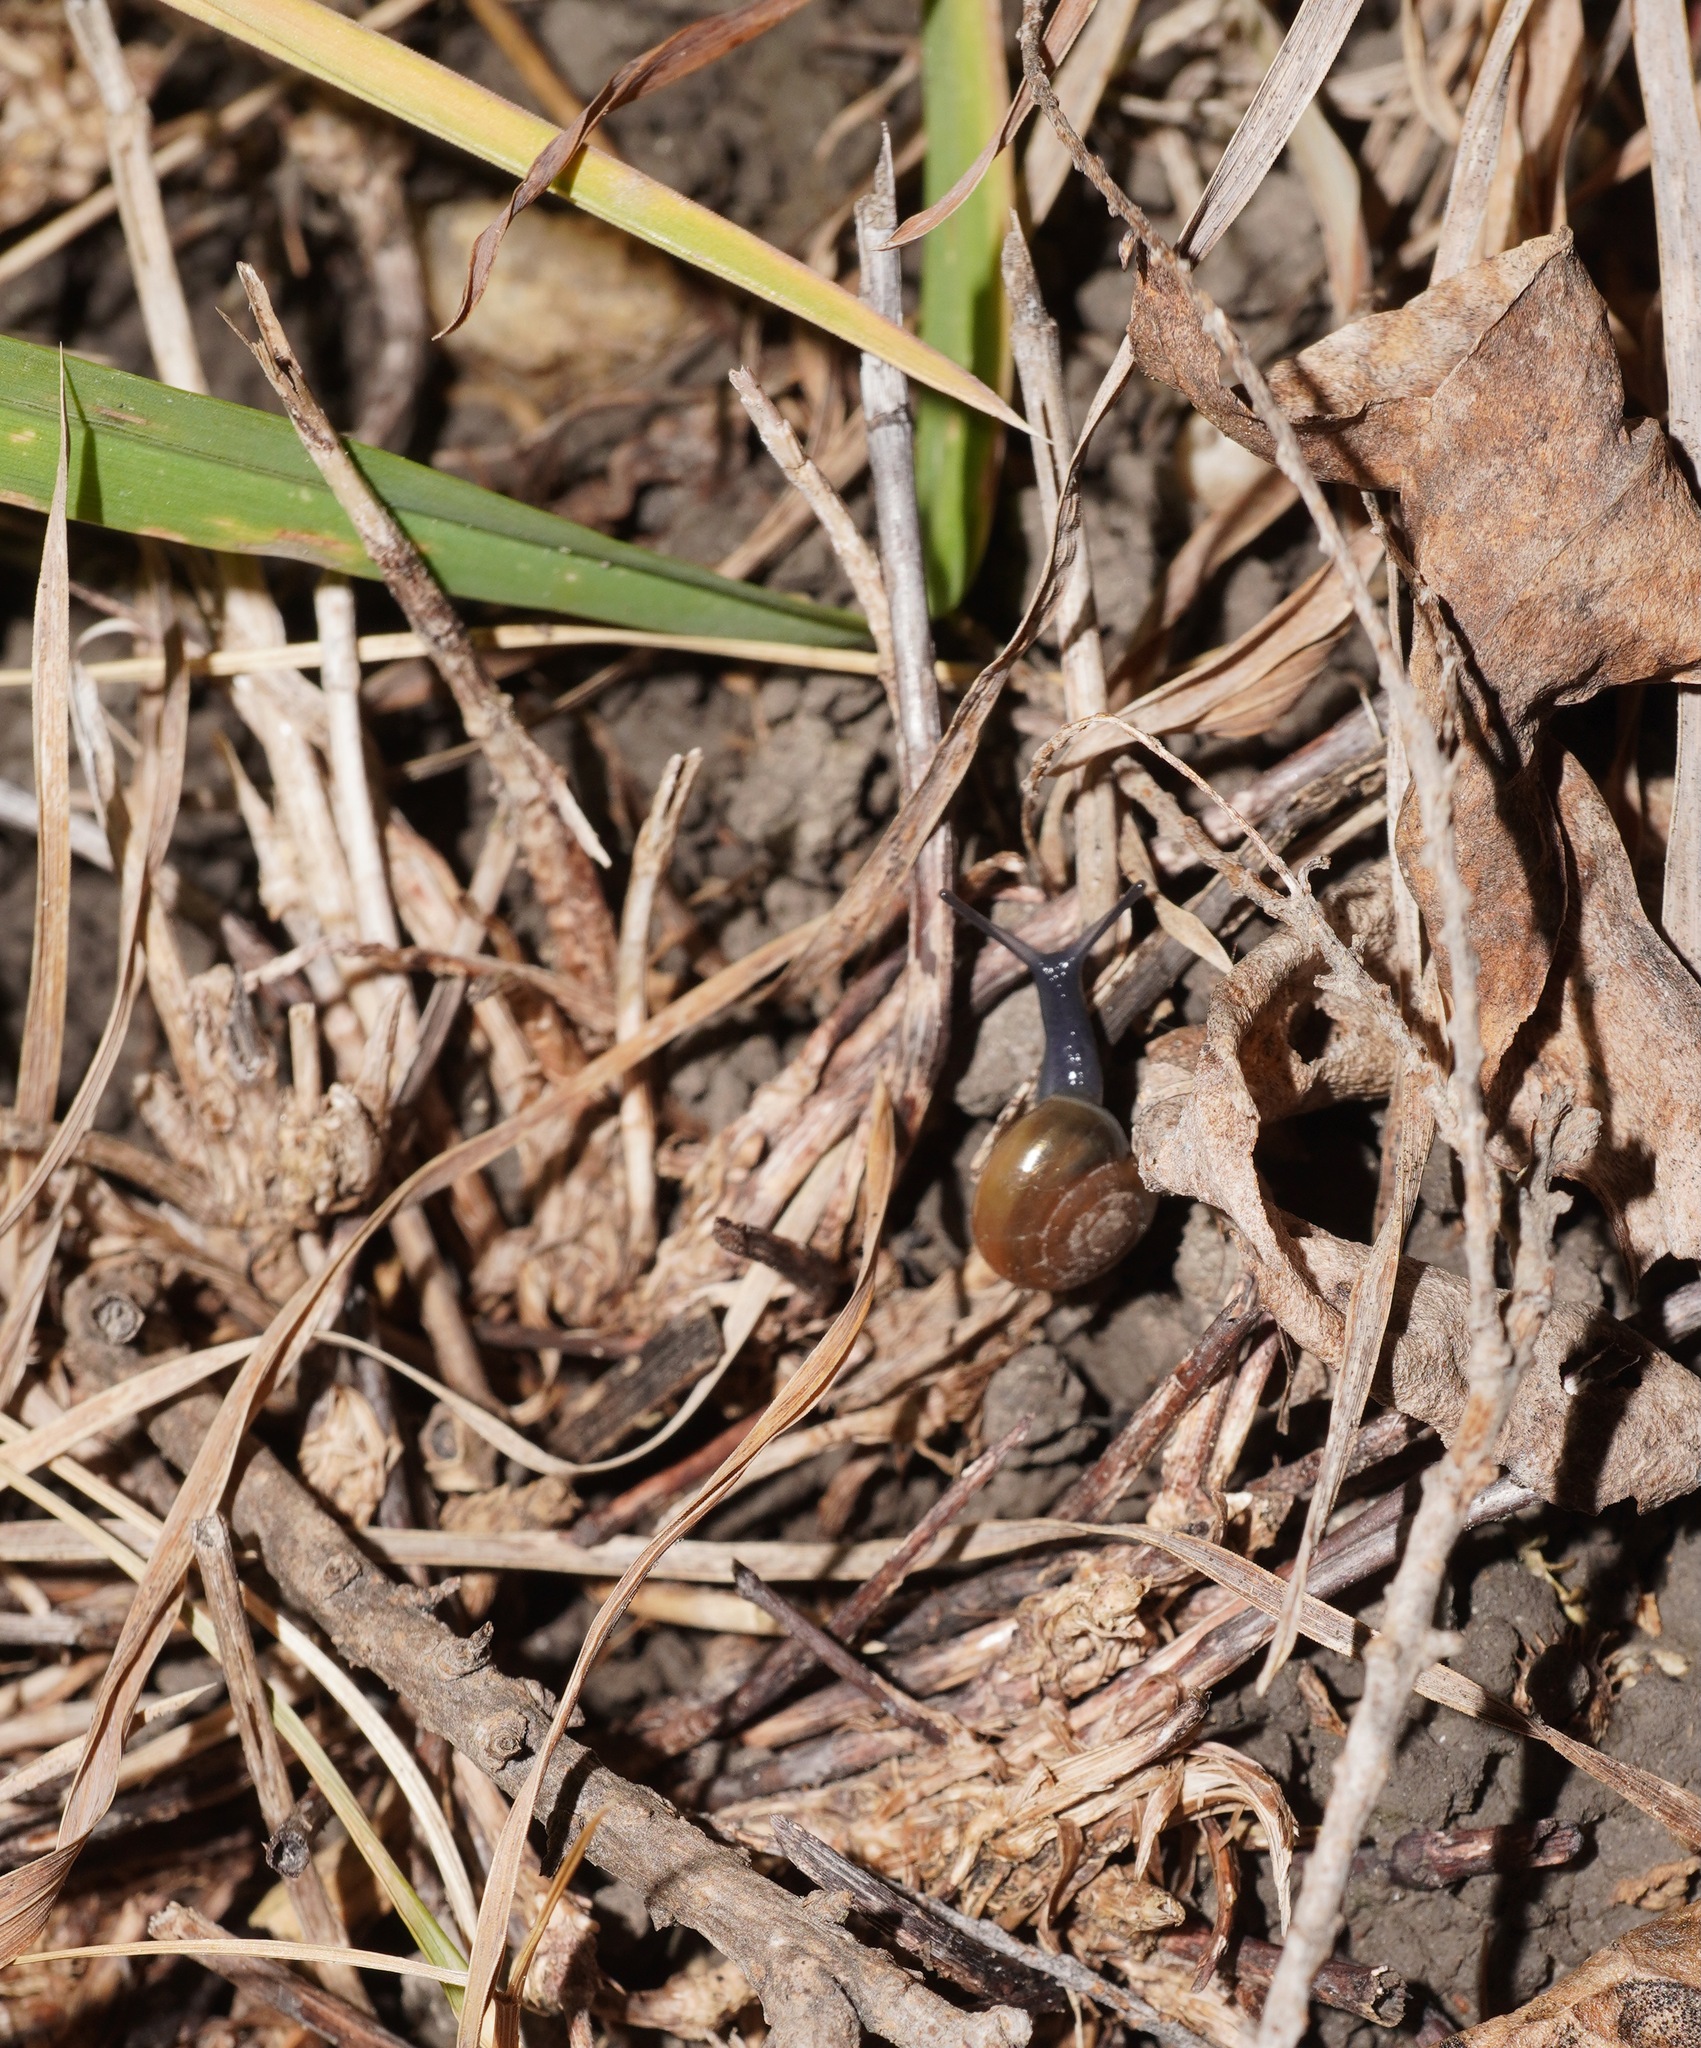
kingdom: Animalia
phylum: Mollusca
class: Gastropoda
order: Stylommatophora
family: Oxychilidae
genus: Oxychilus
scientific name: Oxychilus
